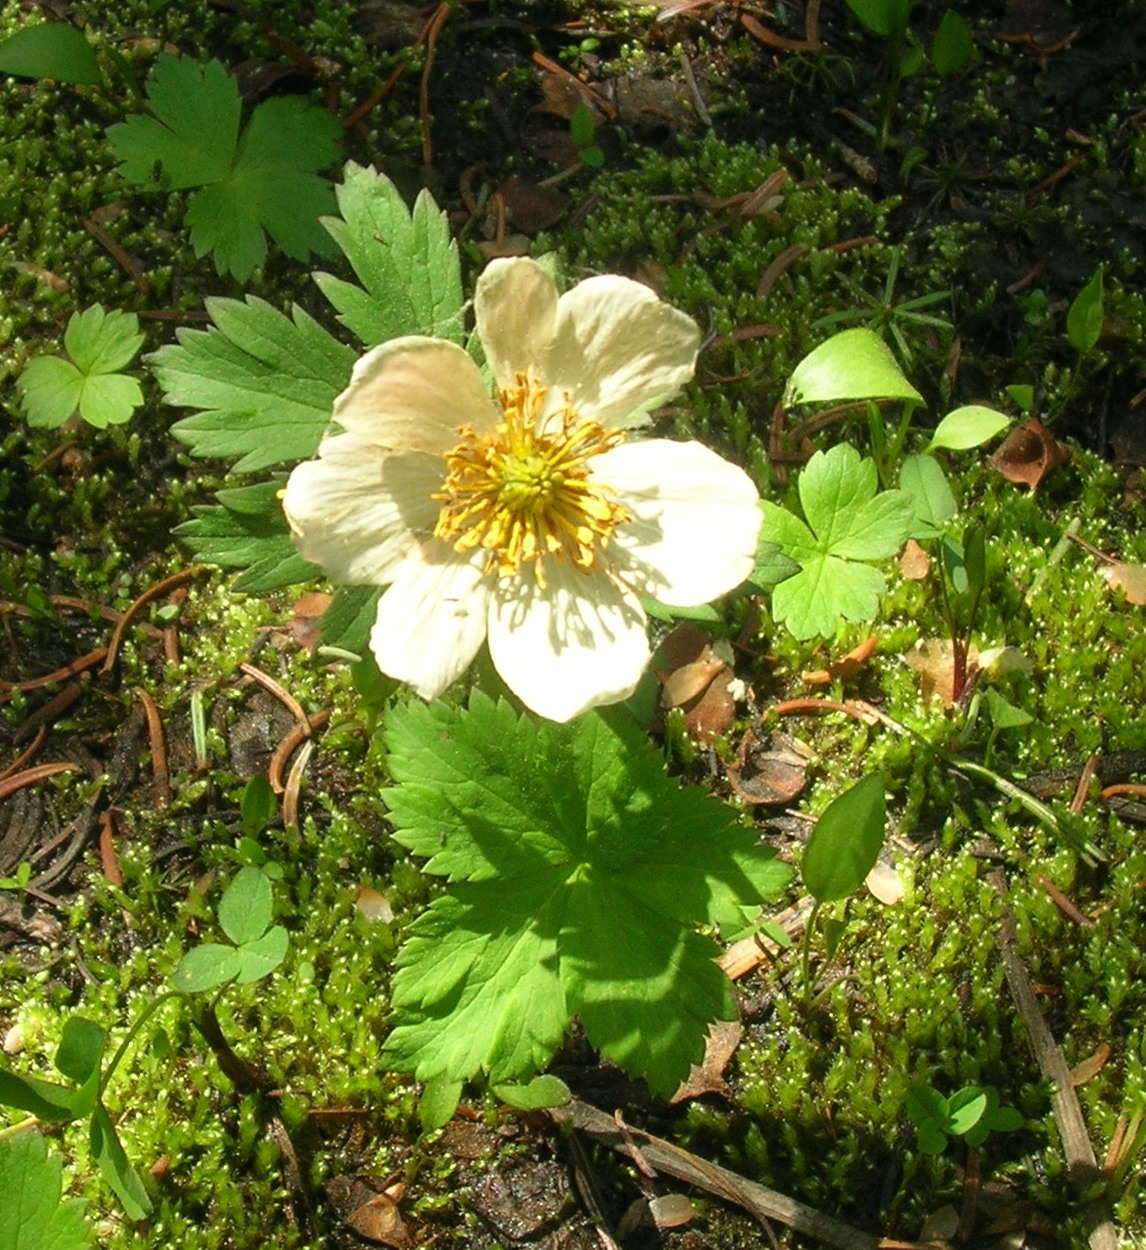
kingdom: Plantae
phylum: Tracheophyta
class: Magnoliopsida
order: Ranunculales
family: Ranunculaceae
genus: Trollius
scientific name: Trollius laxus
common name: American globeflower
